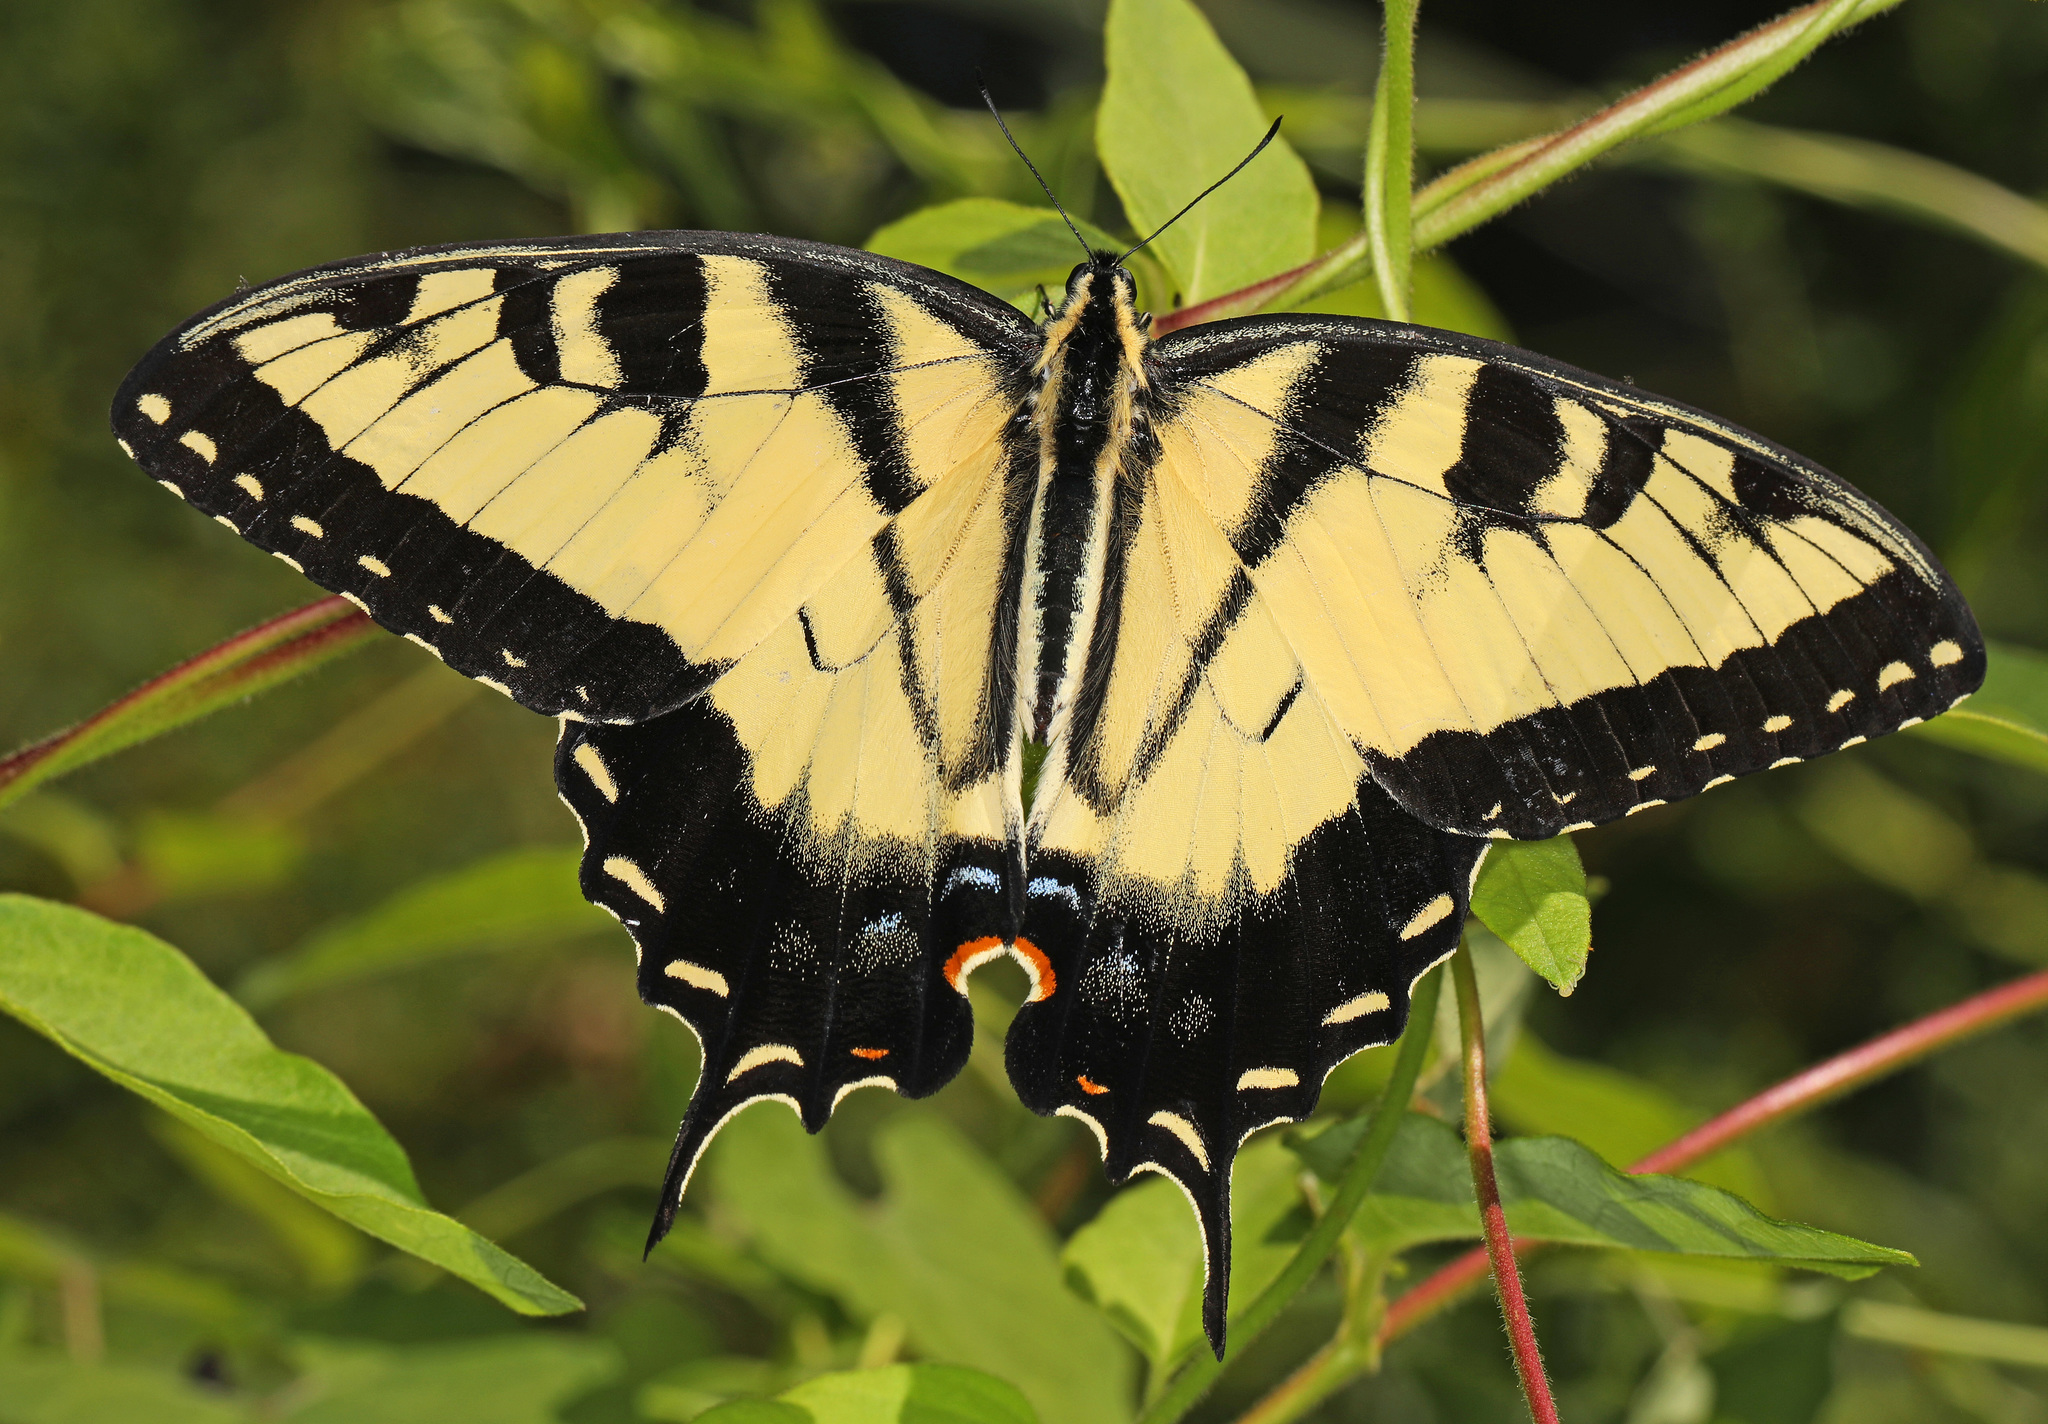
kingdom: Animalia
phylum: Arthropoda
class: Insecta
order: Lepidoptera
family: Papilionidae
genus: Papilio
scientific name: Papilio glaucus
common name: Tiger swallowtail
